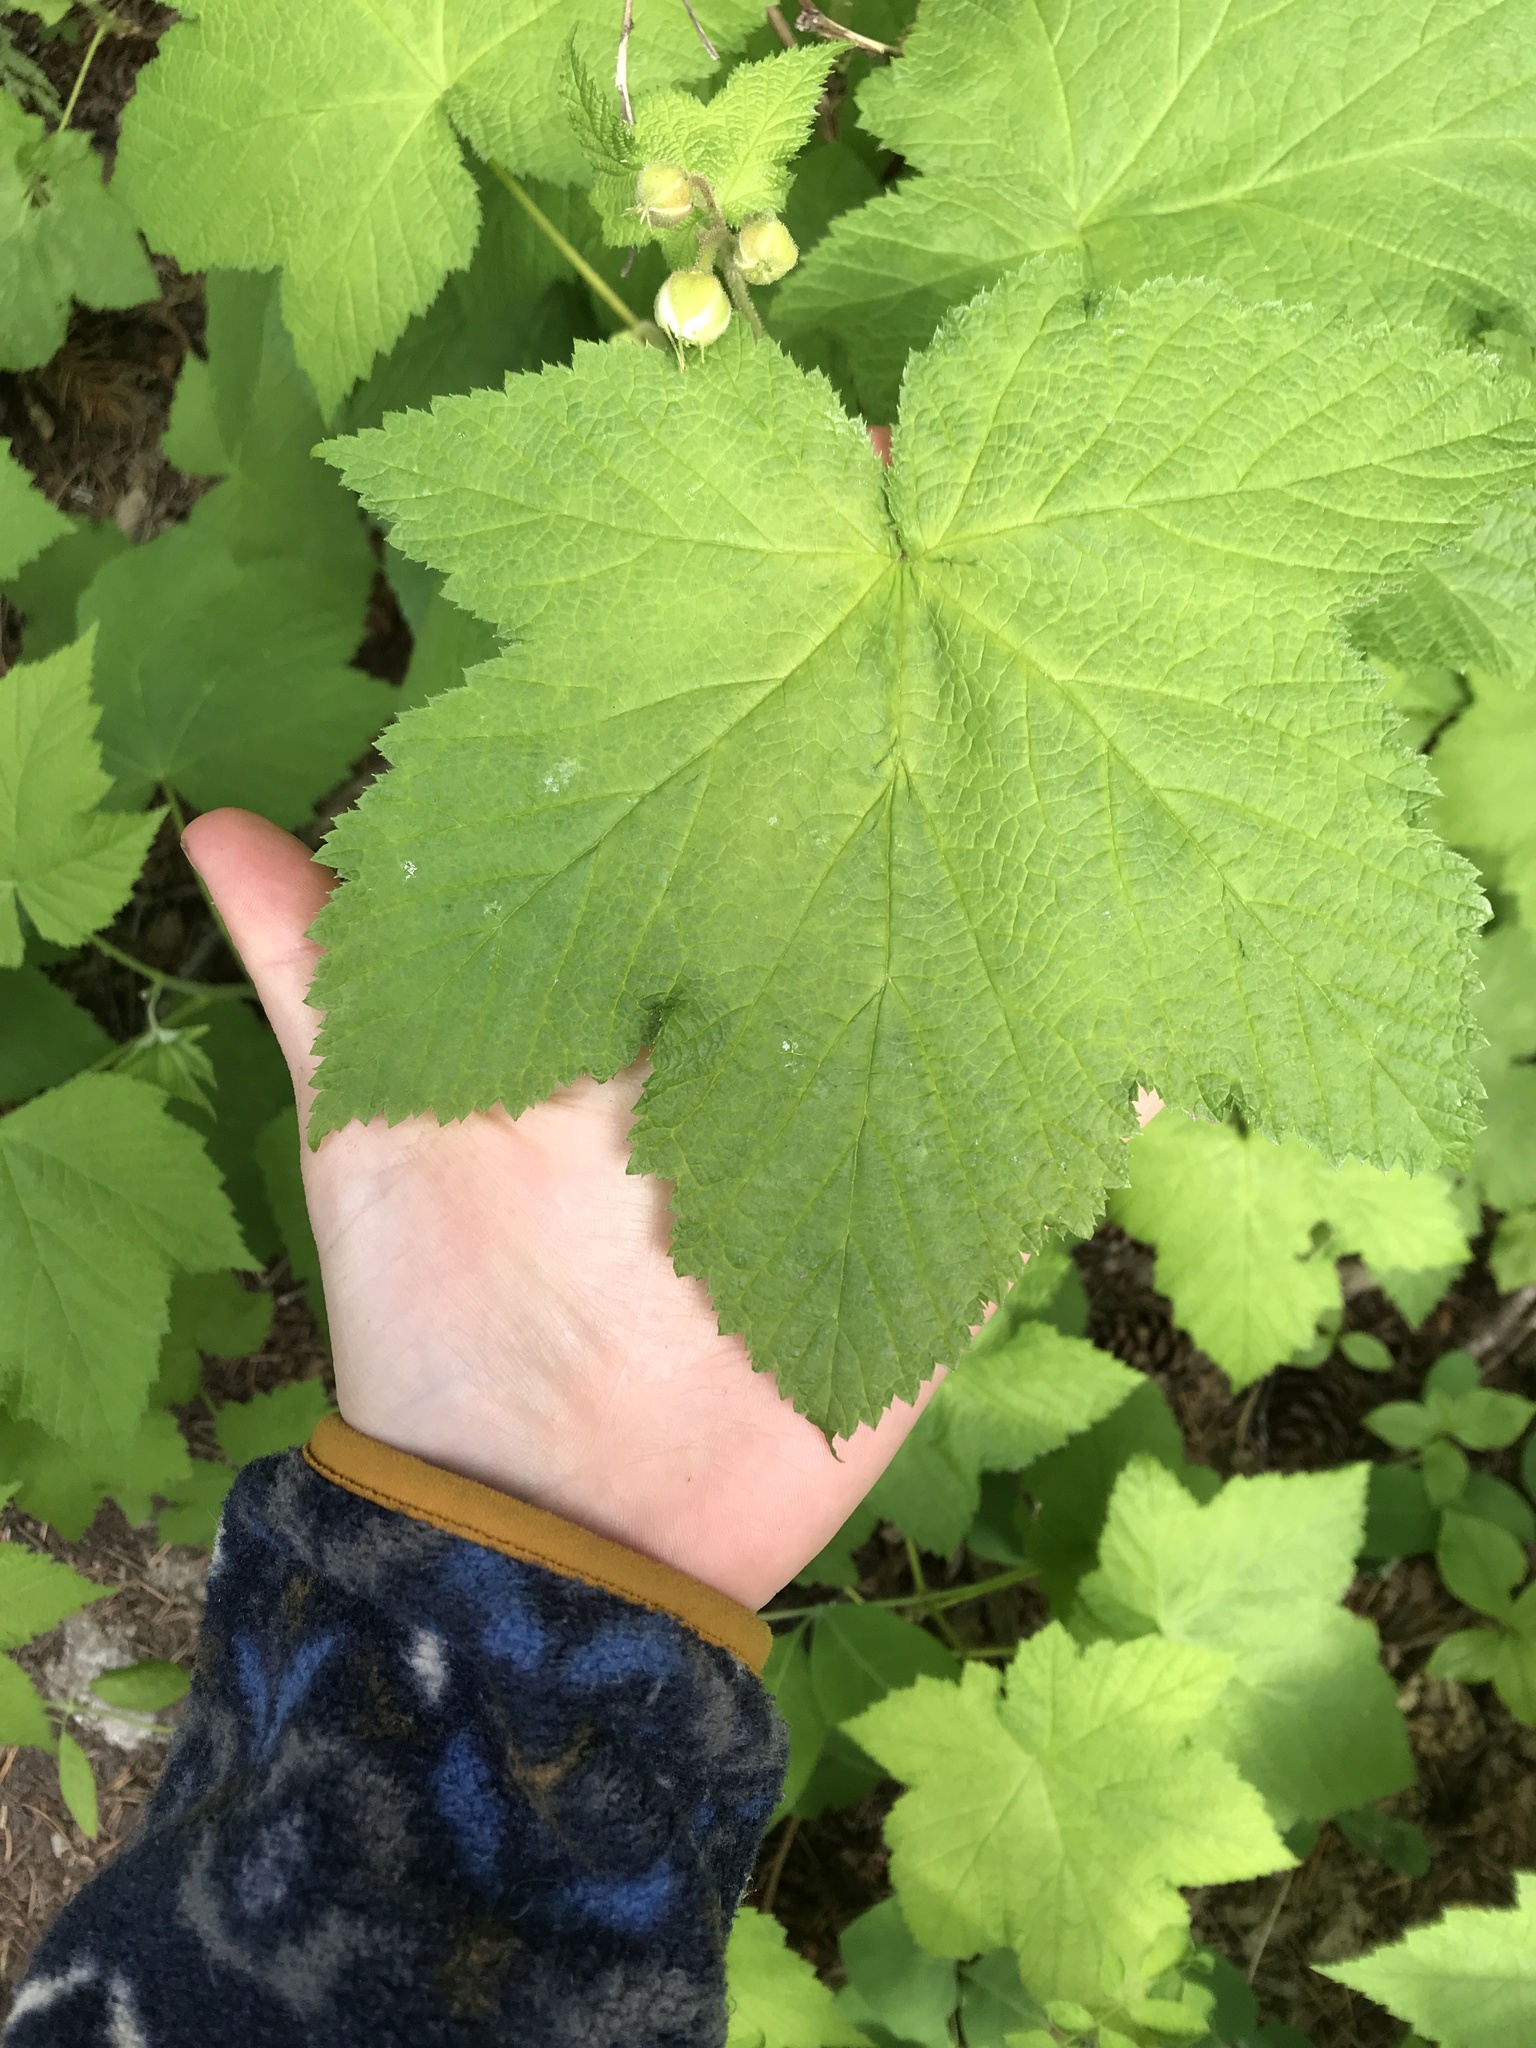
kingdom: Plantae
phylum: Tracheophyta
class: Magnoliopsida
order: Rosales
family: Rosaceae
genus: Rubus
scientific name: Rubus parviflorus
